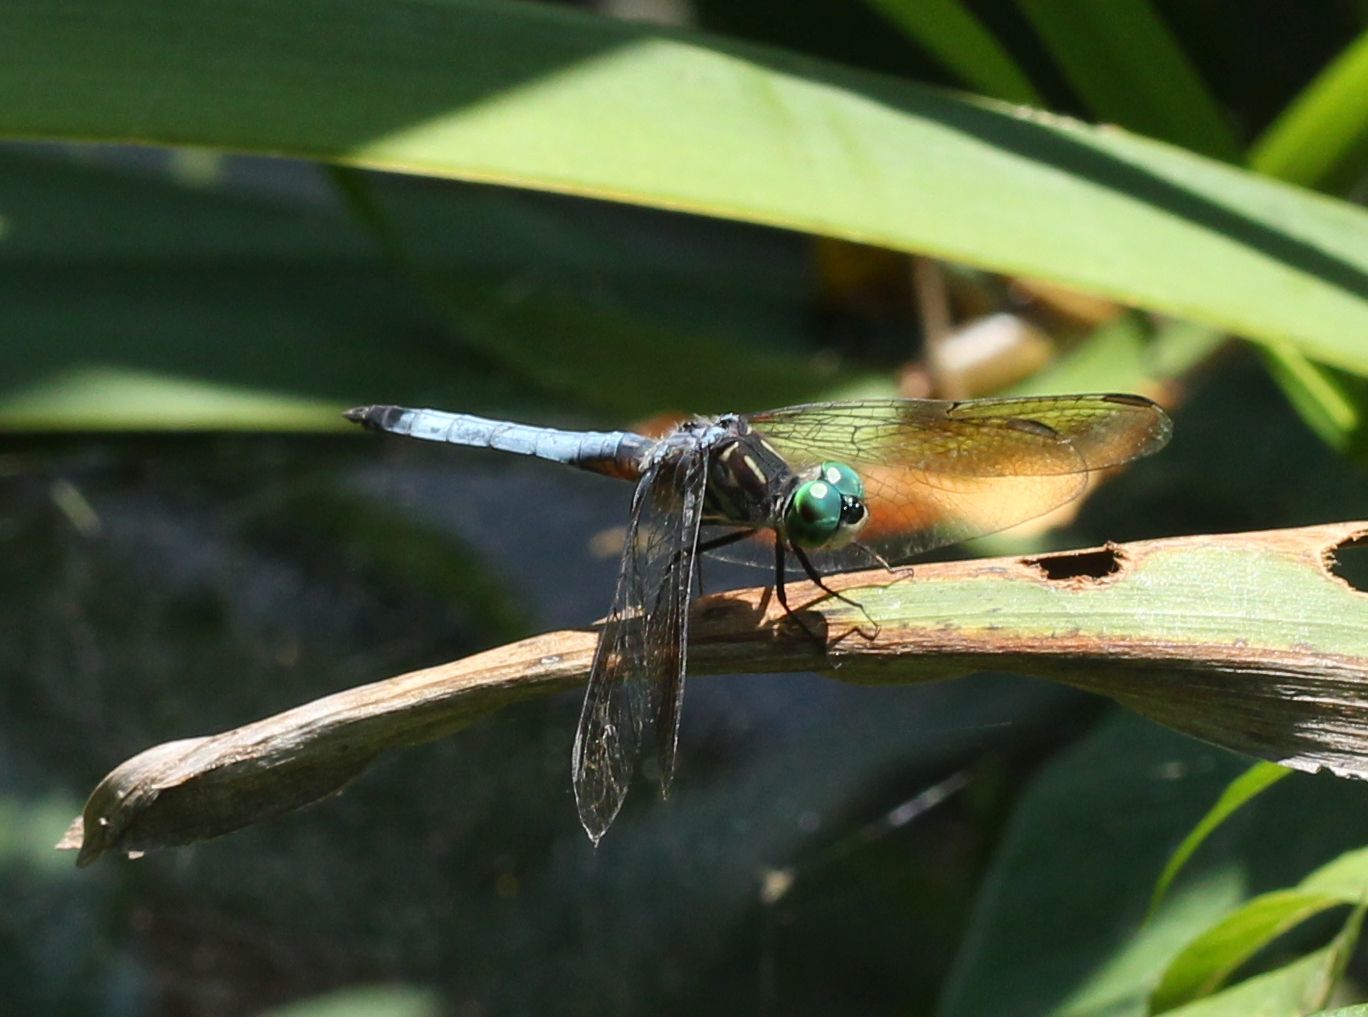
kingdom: Animalia
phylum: Arthropoda
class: Insecta
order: Odonata
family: Libellulidae
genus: Pachydiplax
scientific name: Pachydiplax longipennis
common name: Blue dasher
